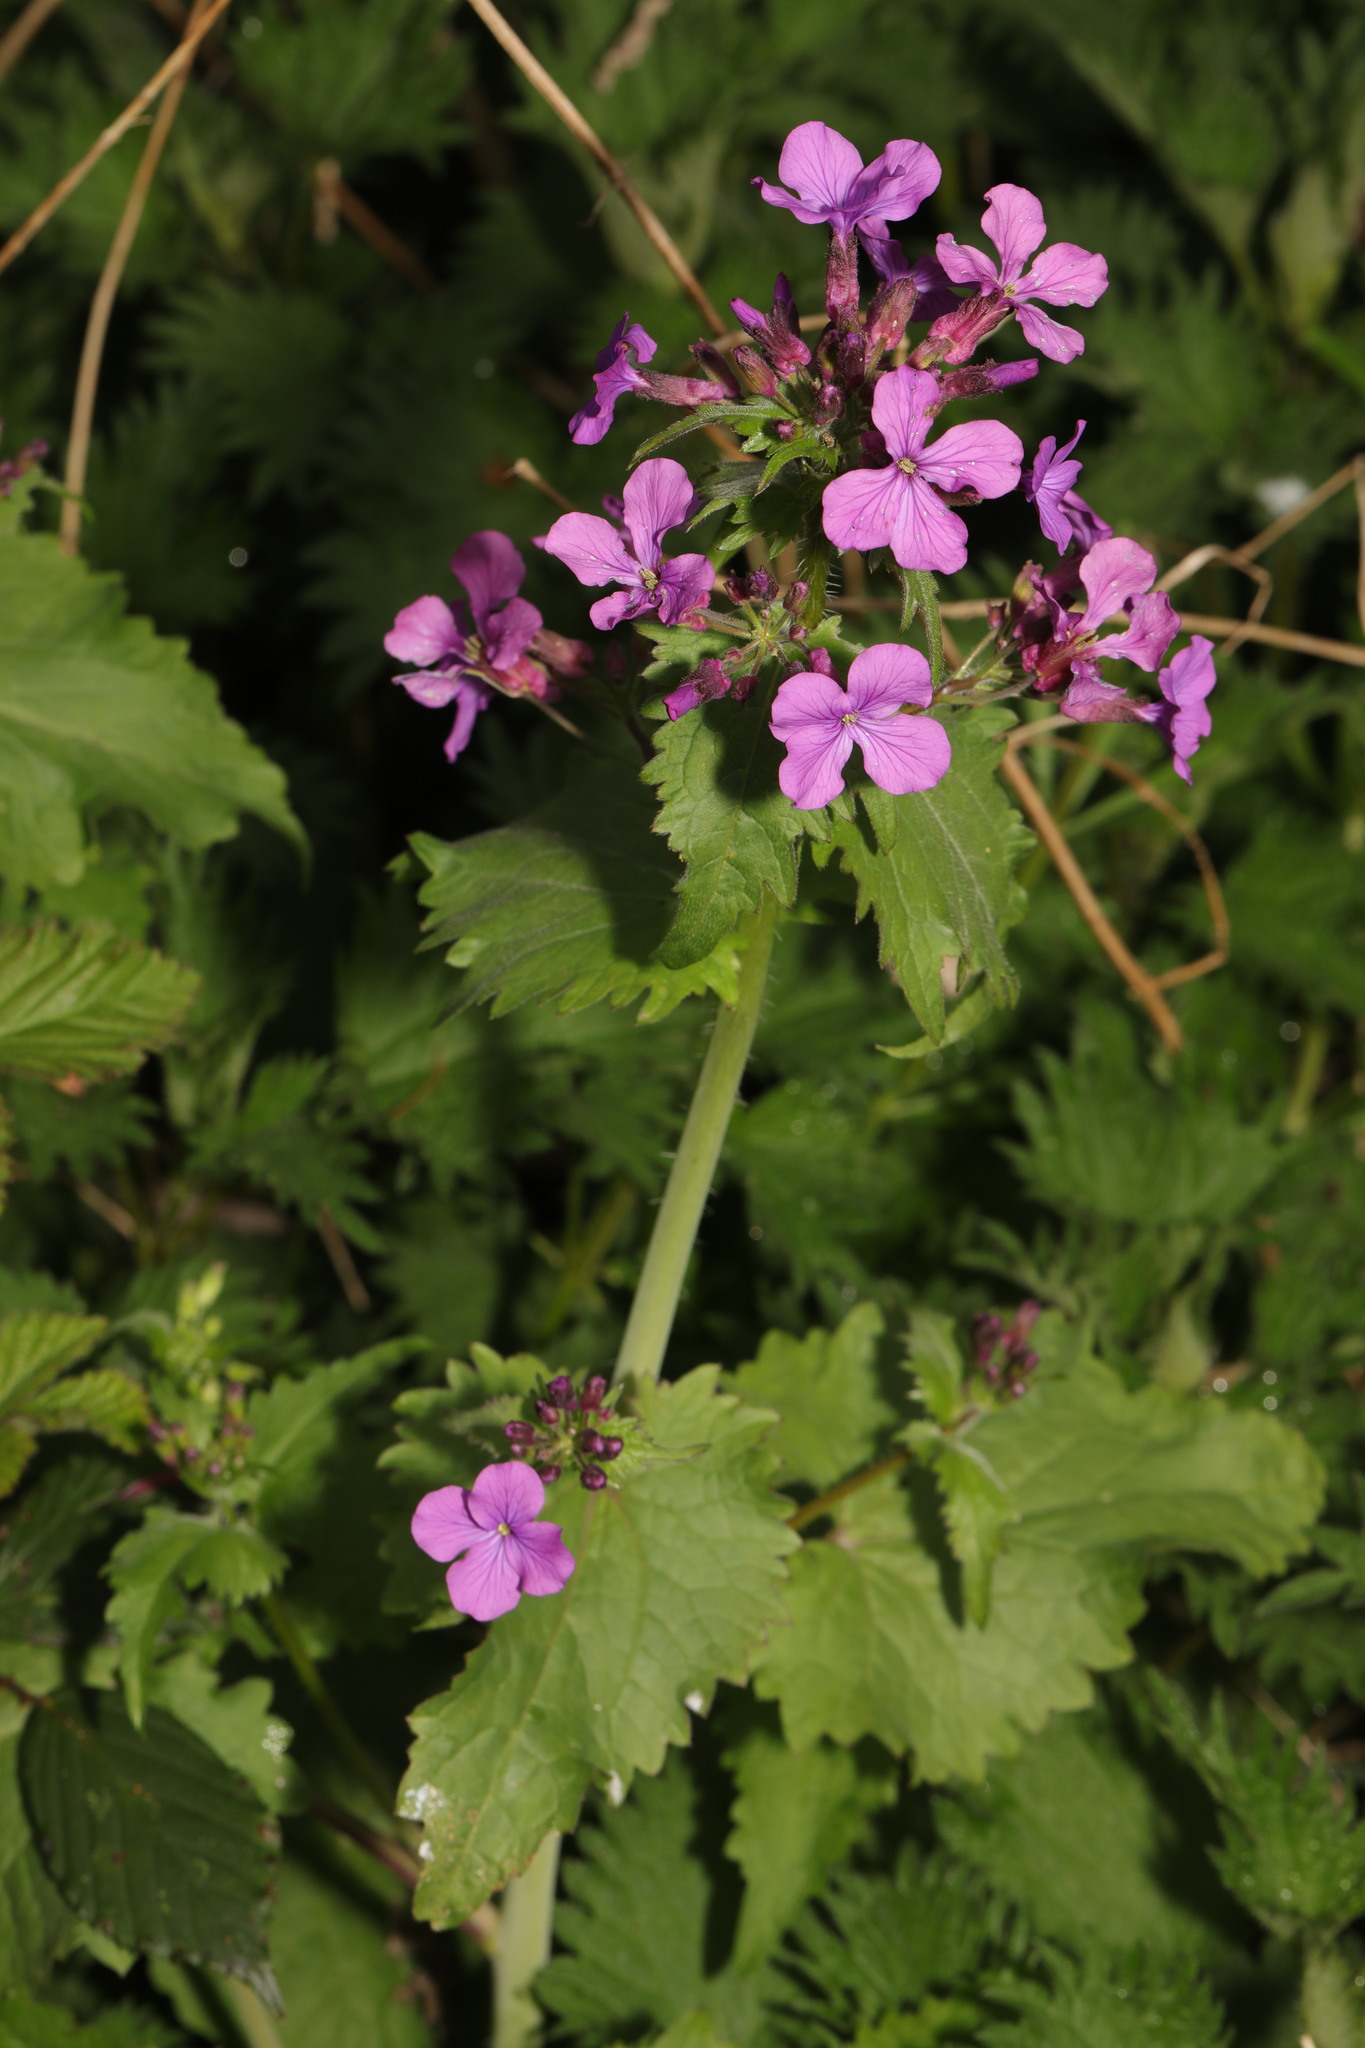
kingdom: Plantae
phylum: Tracheophyta
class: Magnoliopsida
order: Brassicales
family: Brassicaceae
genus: Lunaria
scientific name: Lunaria annua
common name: Honesty
